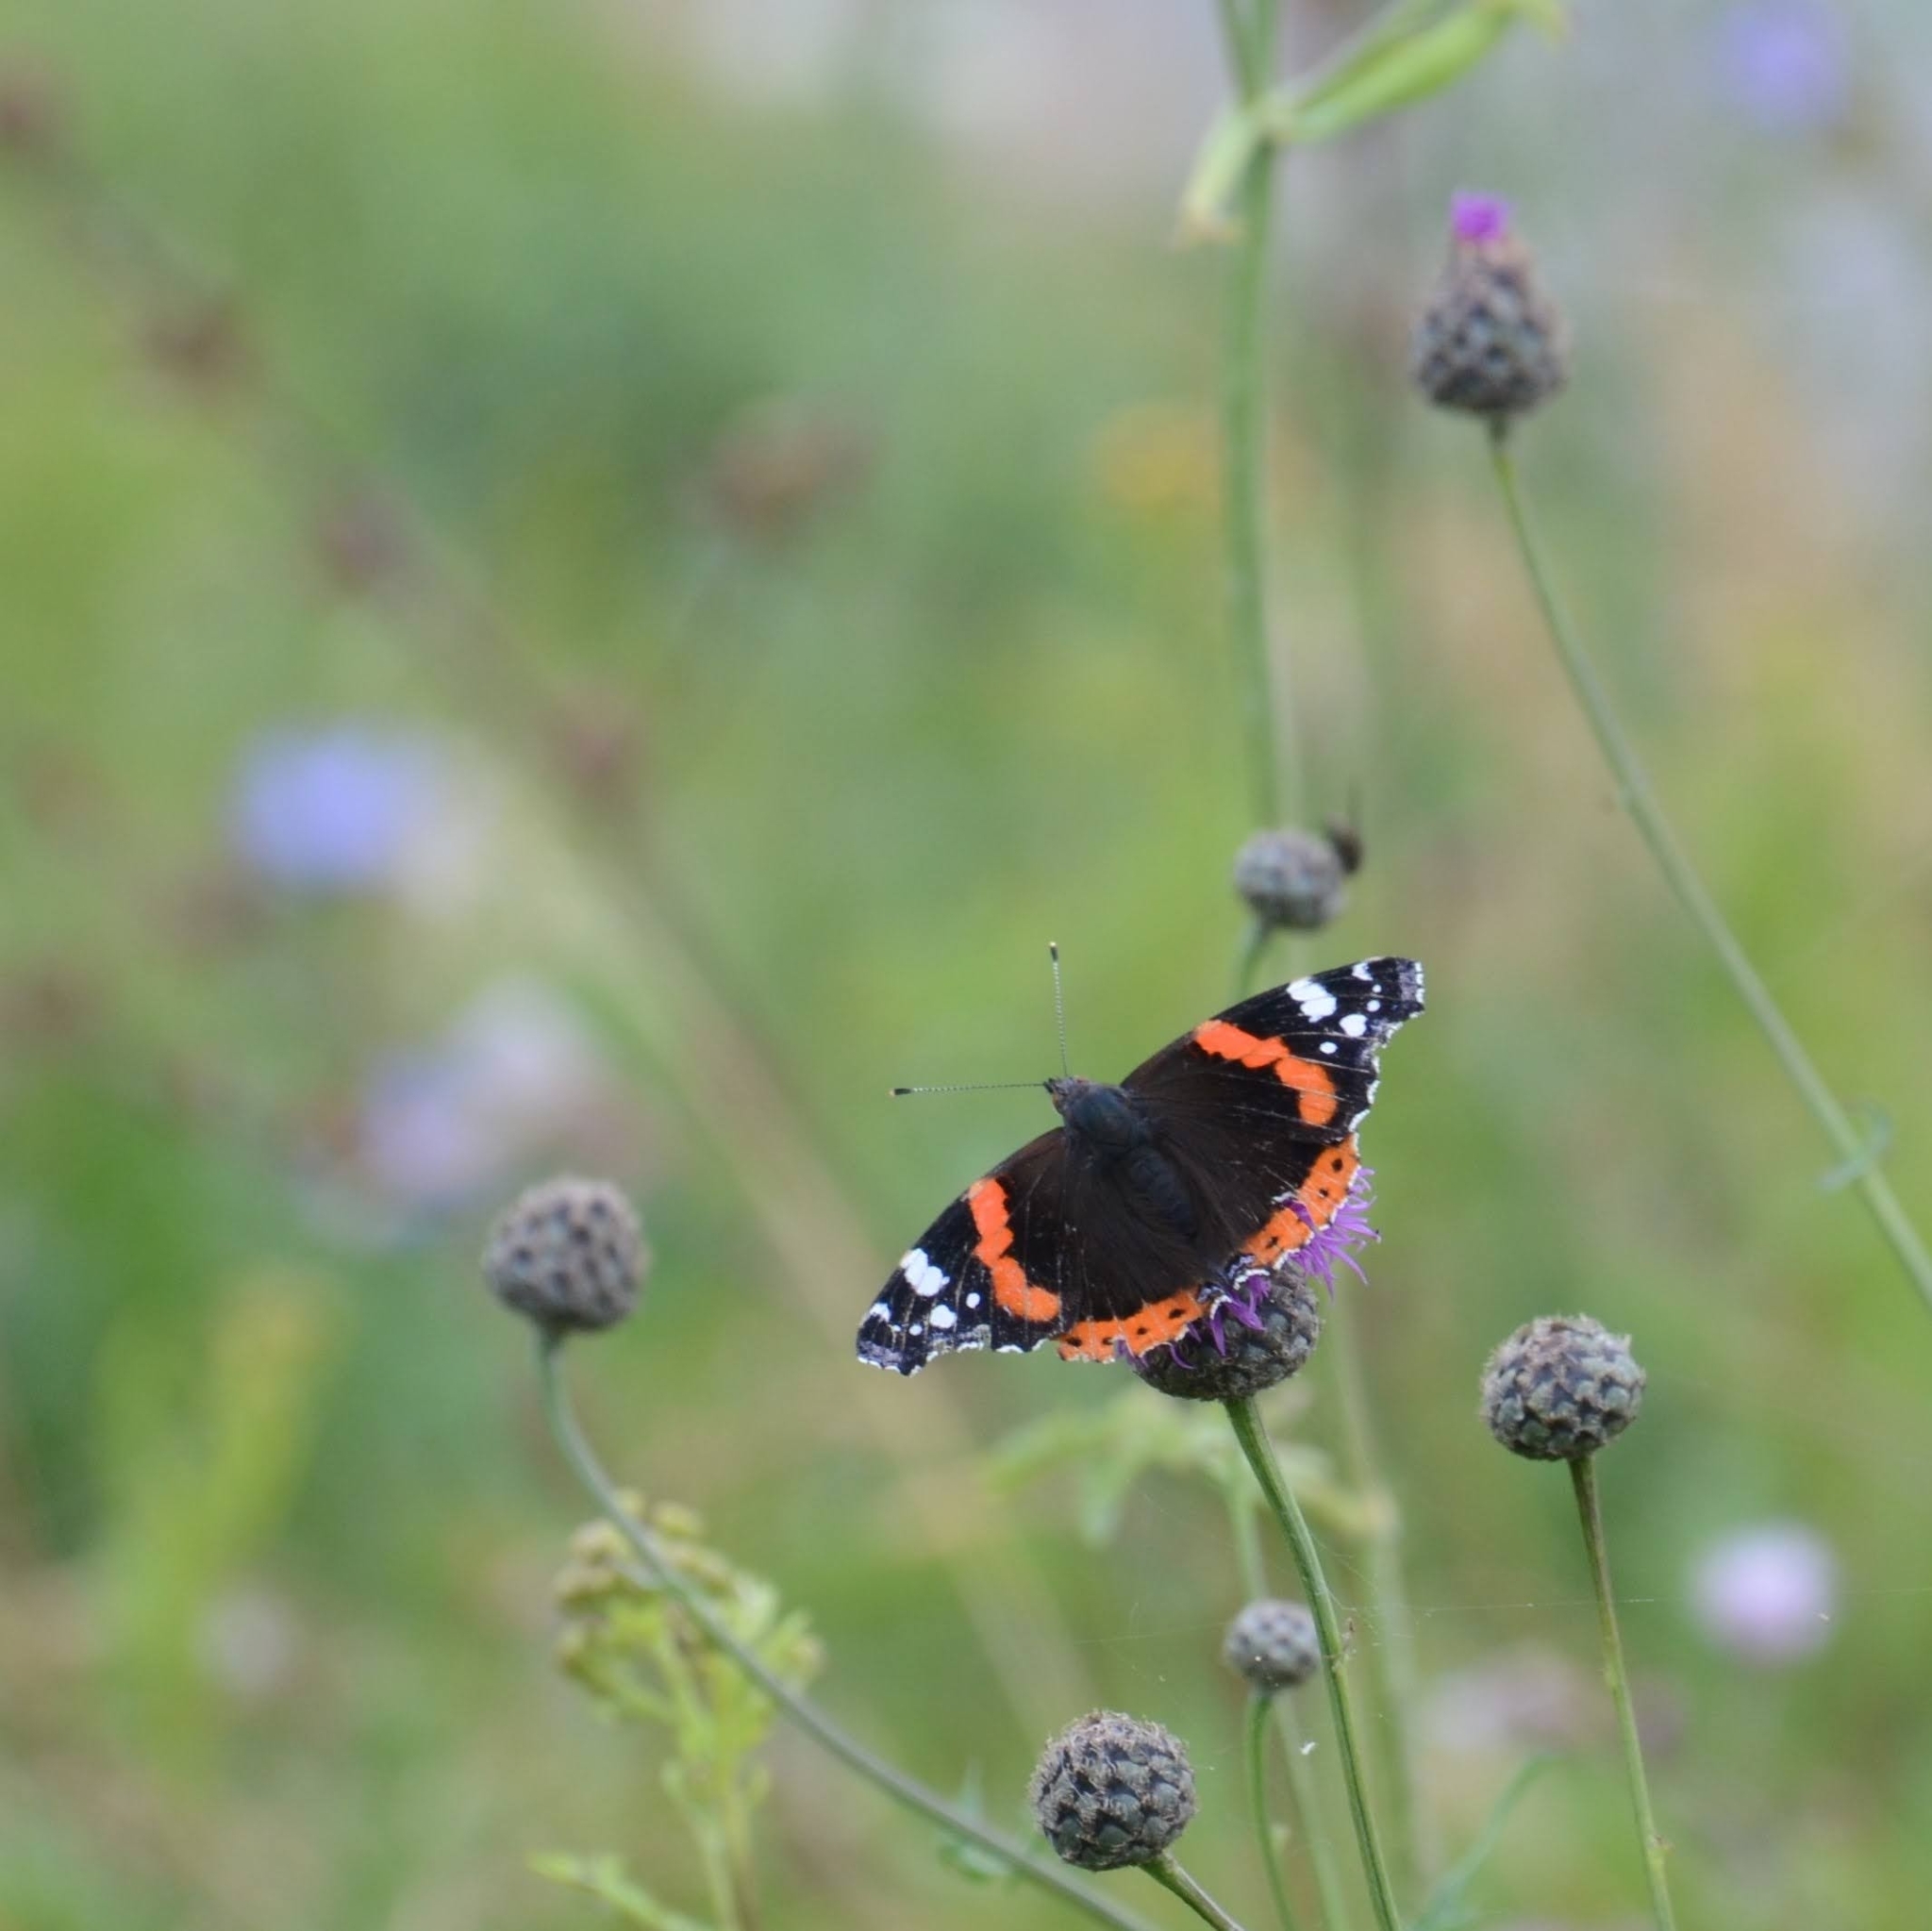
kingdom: Animalia
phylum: Arthropoda
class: Insecta
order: Lepidoptera
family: Nymphalidae
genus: Vanessa
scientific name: Vanessa atalanta
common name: Red admiral
